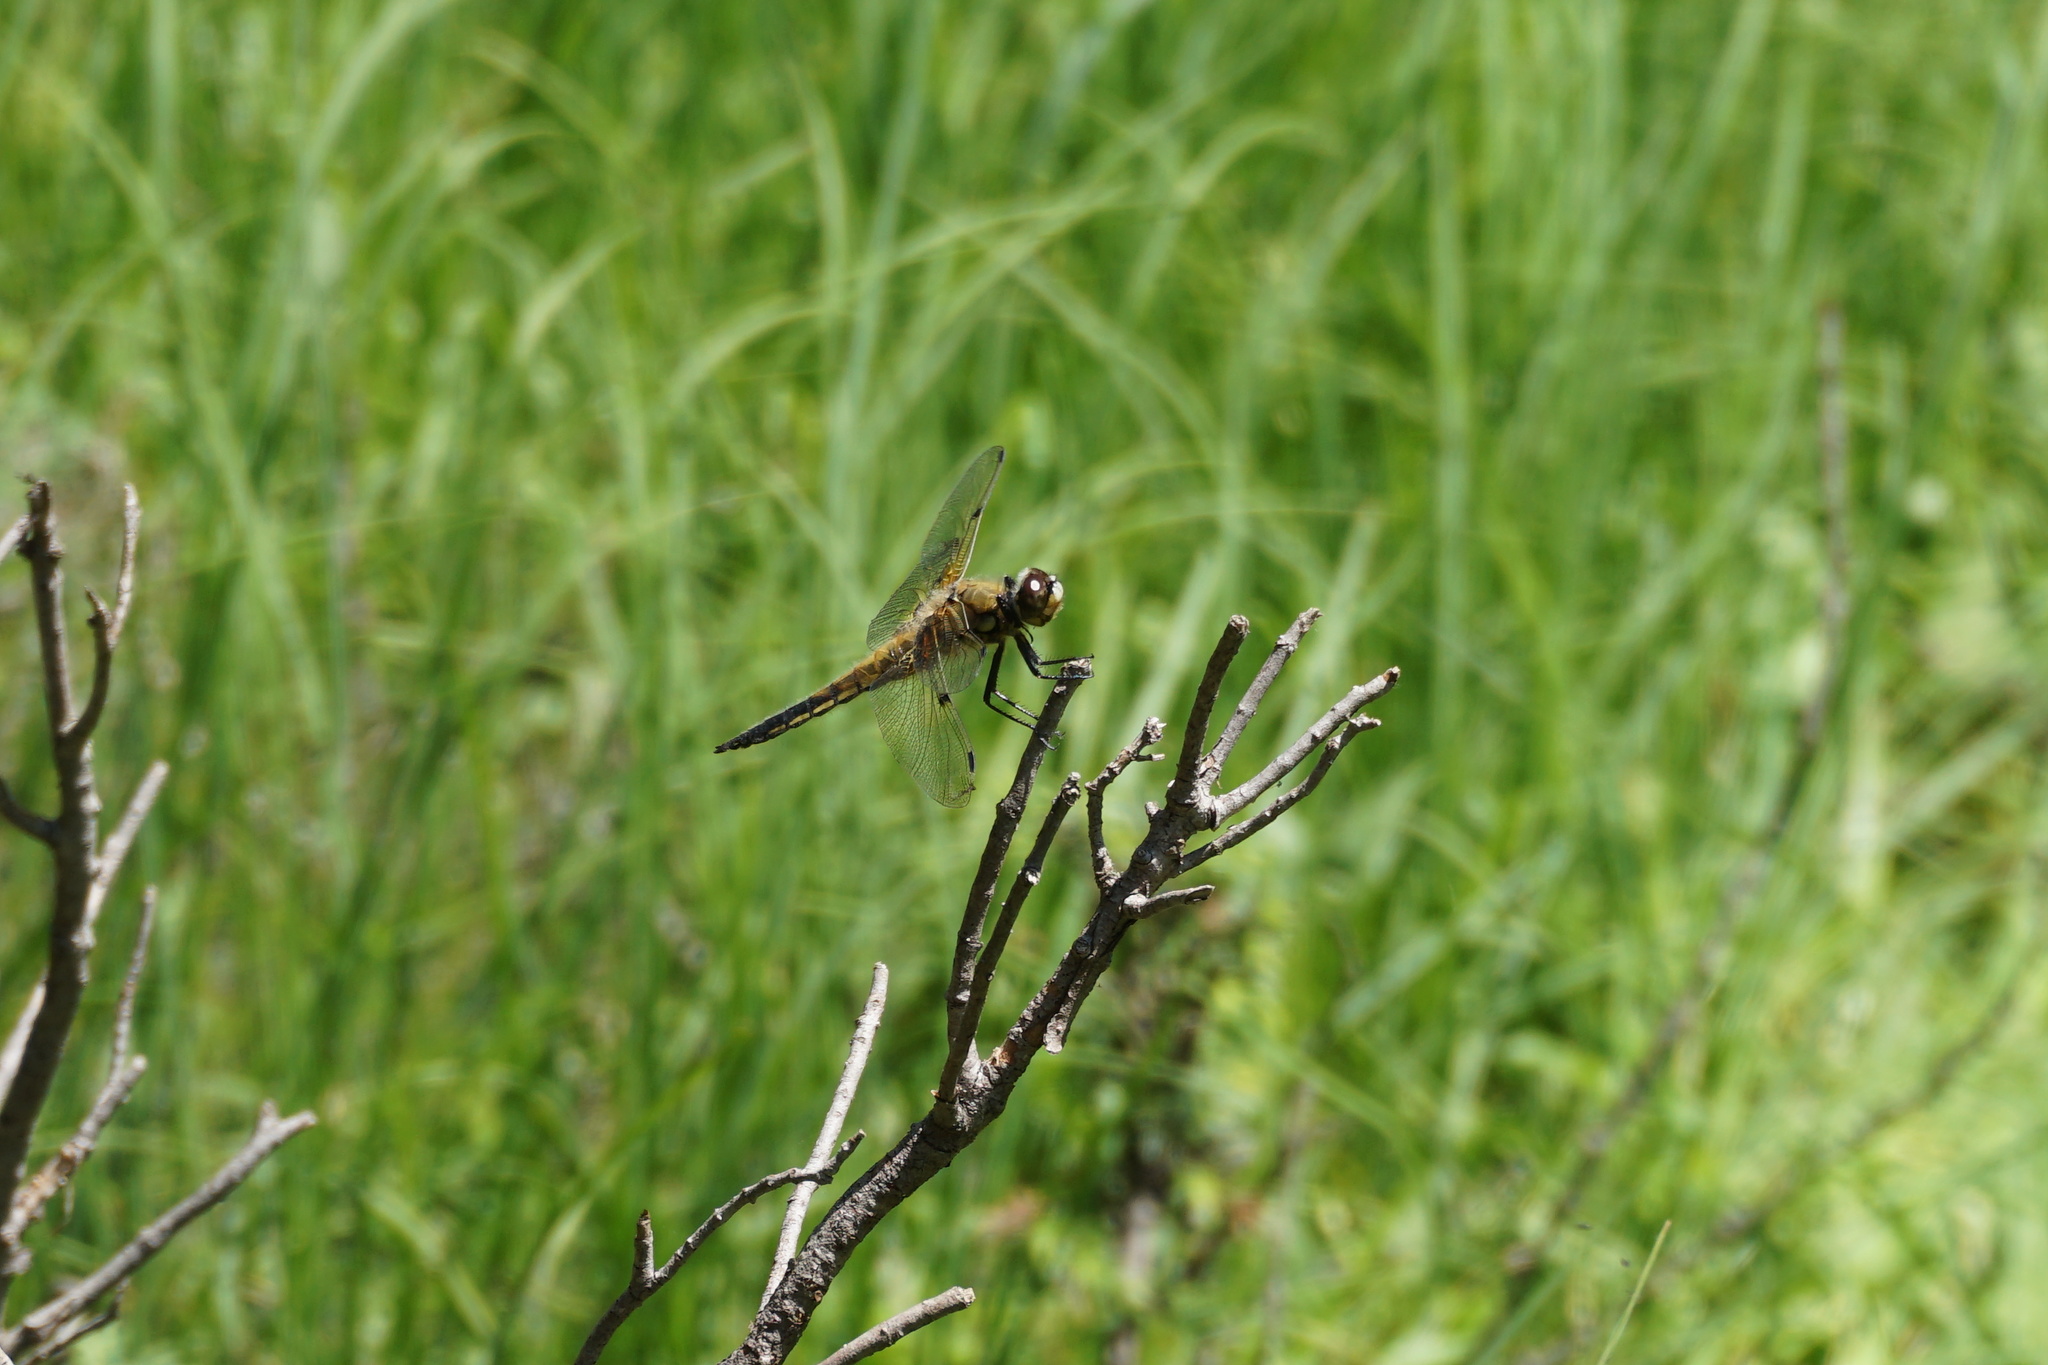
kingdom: Animalia
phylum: Arthropoda
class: Insecta
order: Odonata
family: Libellulidae
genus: Libellula
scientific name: Libellula quadrimaculata
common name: Four-spotted chaser
